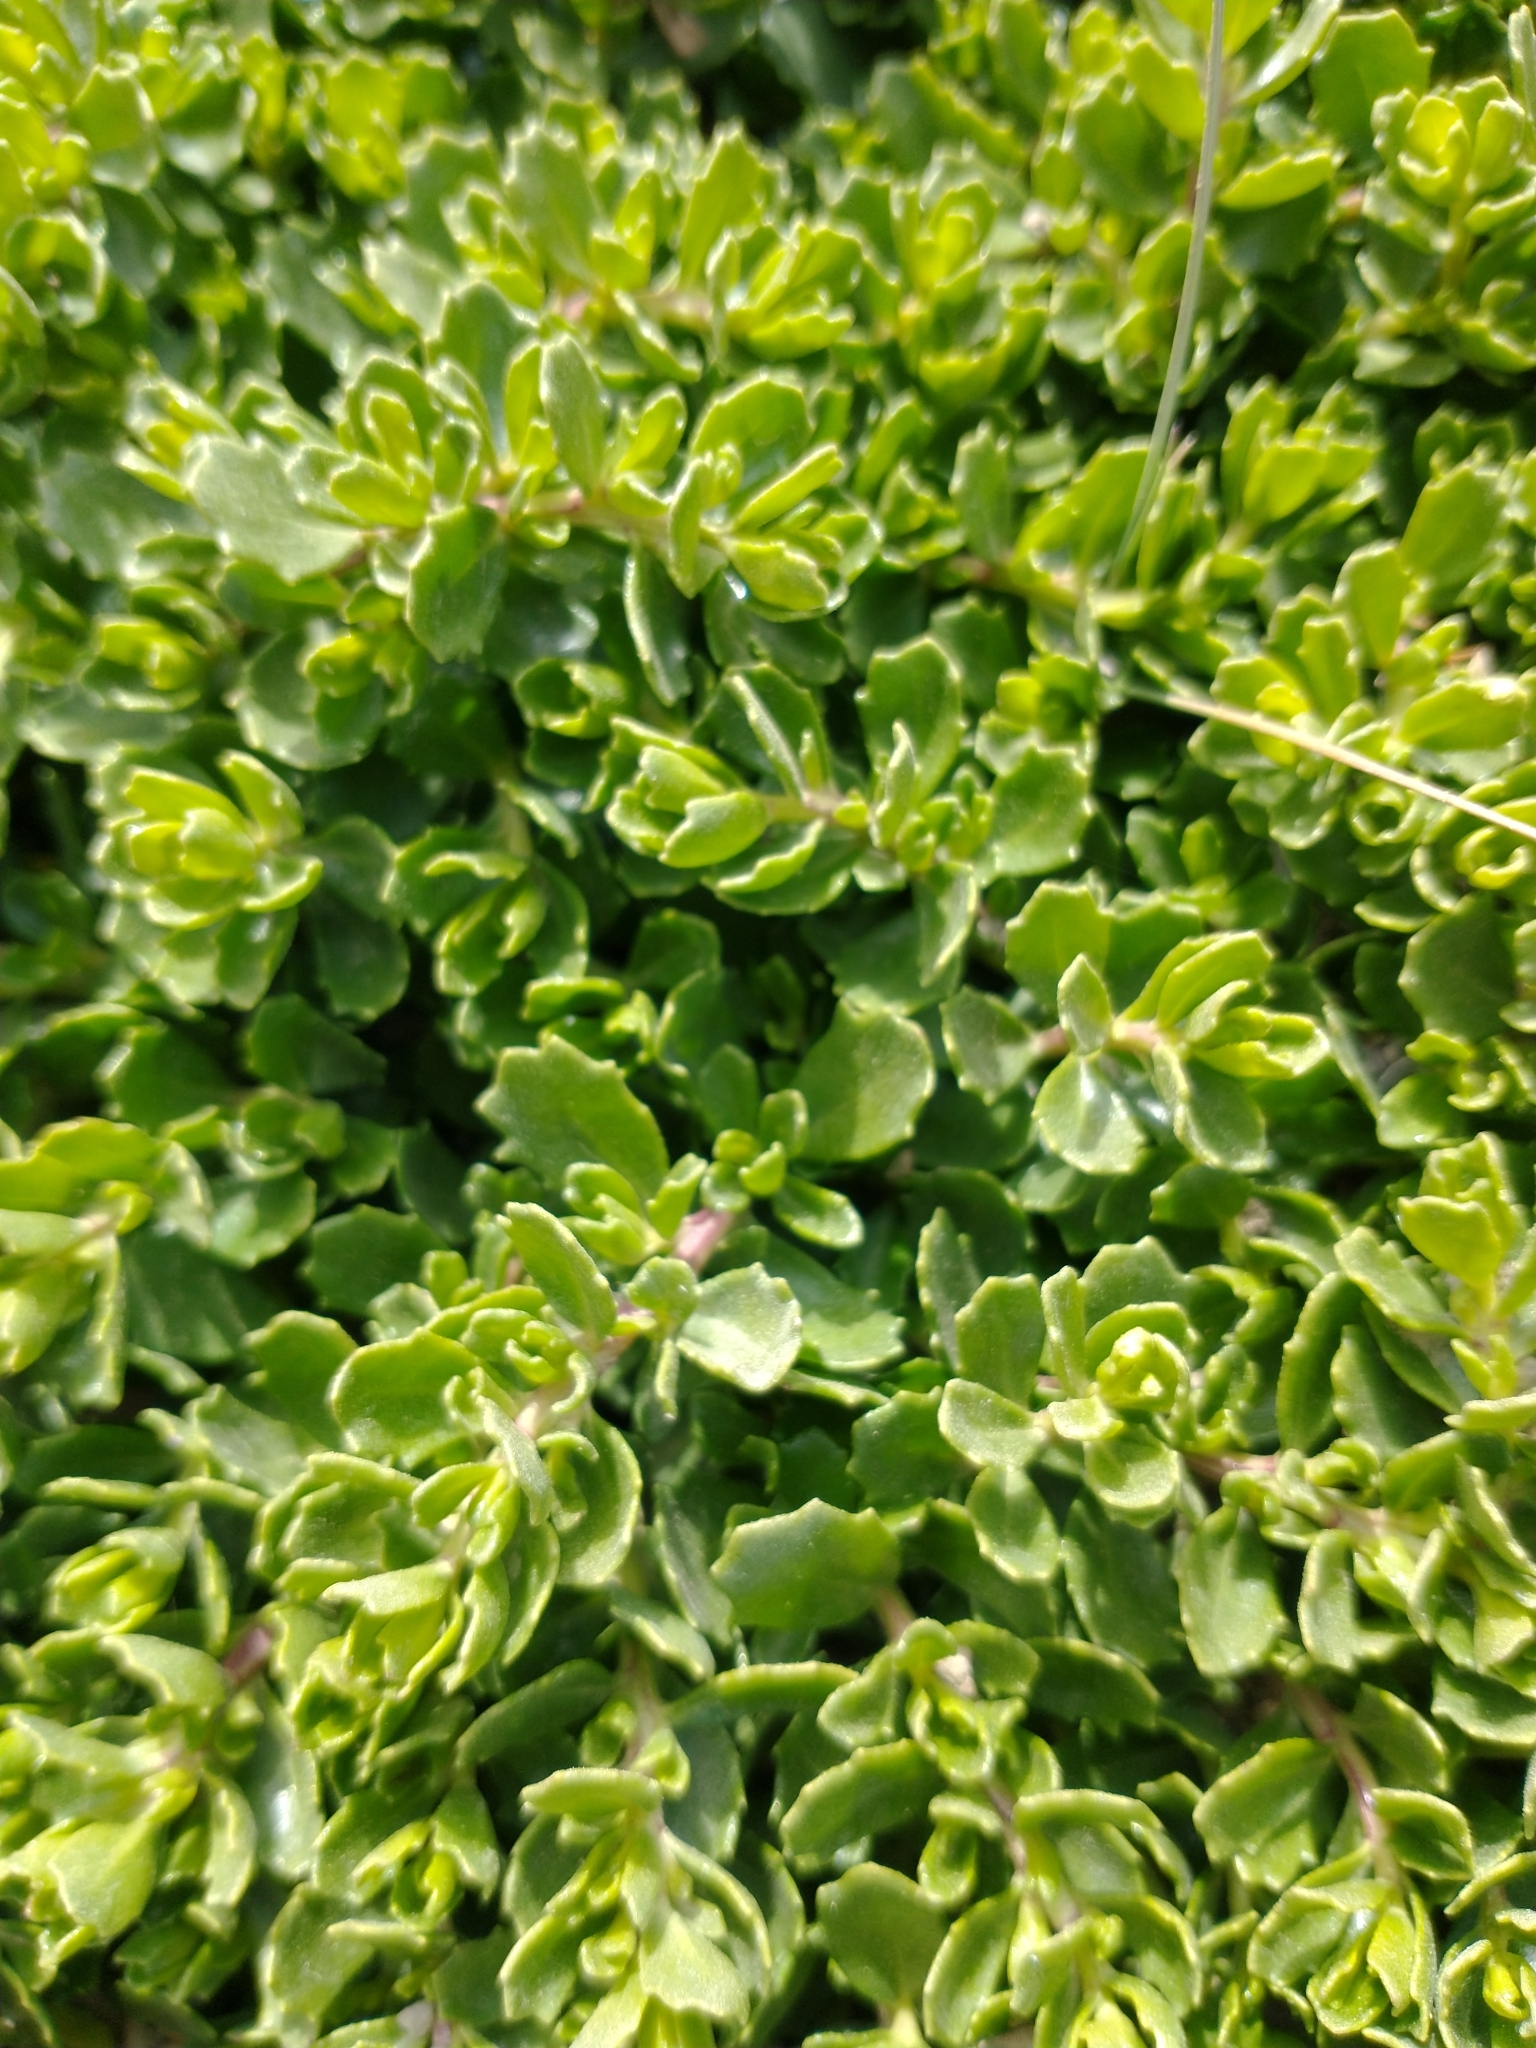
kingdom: Plantae
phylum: Tracheophyta
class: Magnoliopsida
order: Asterales
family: Asteraceae
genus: Baccharis
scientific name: Baccharis magellanica
